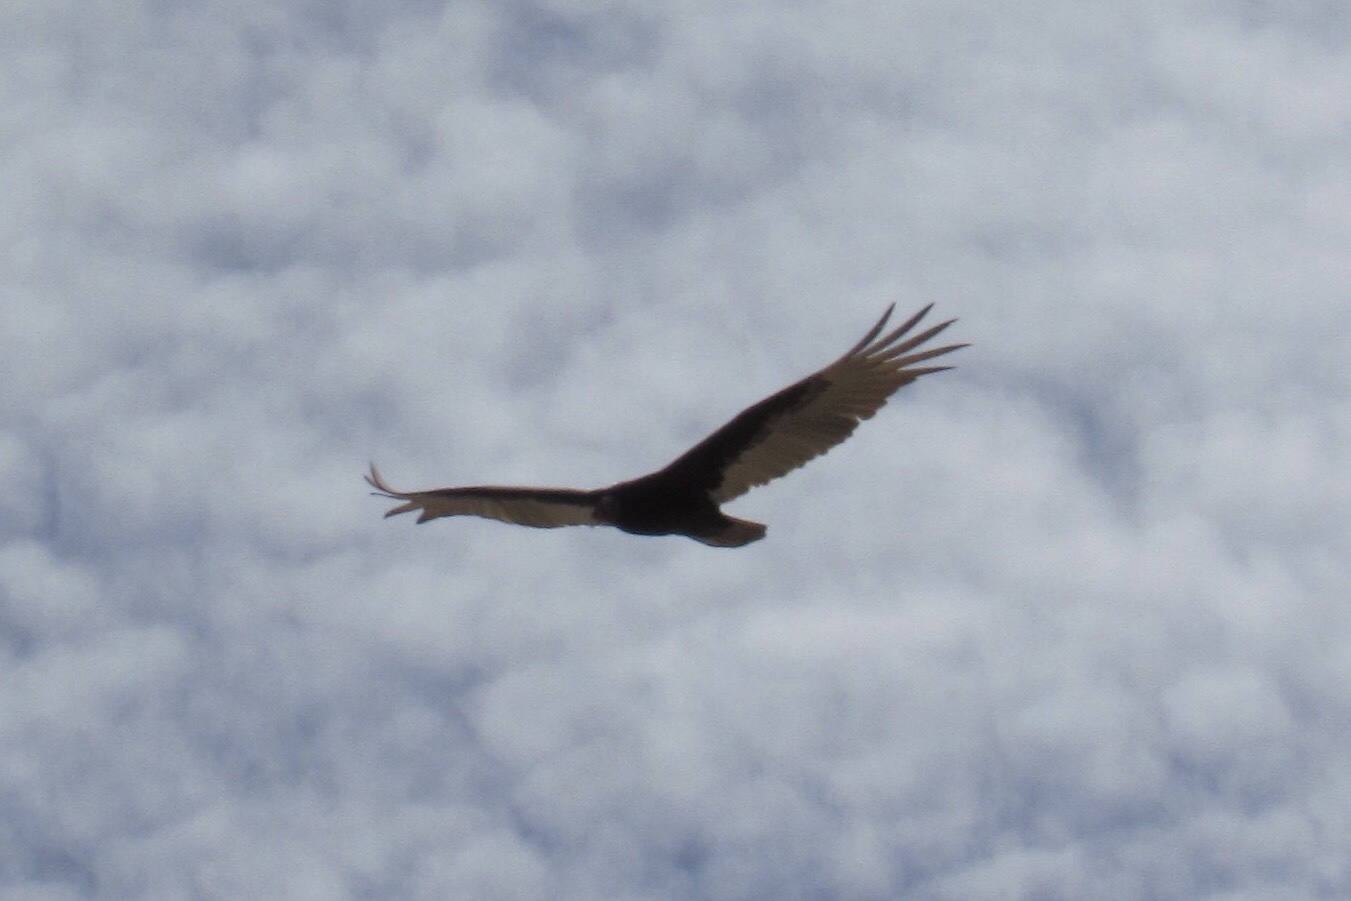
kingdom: Animalia
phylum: Chordata
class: Aves
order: Accipitriformes
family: Cathartidae
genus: Cathartes
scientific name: Cathartes aura
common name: Turkey vulture
